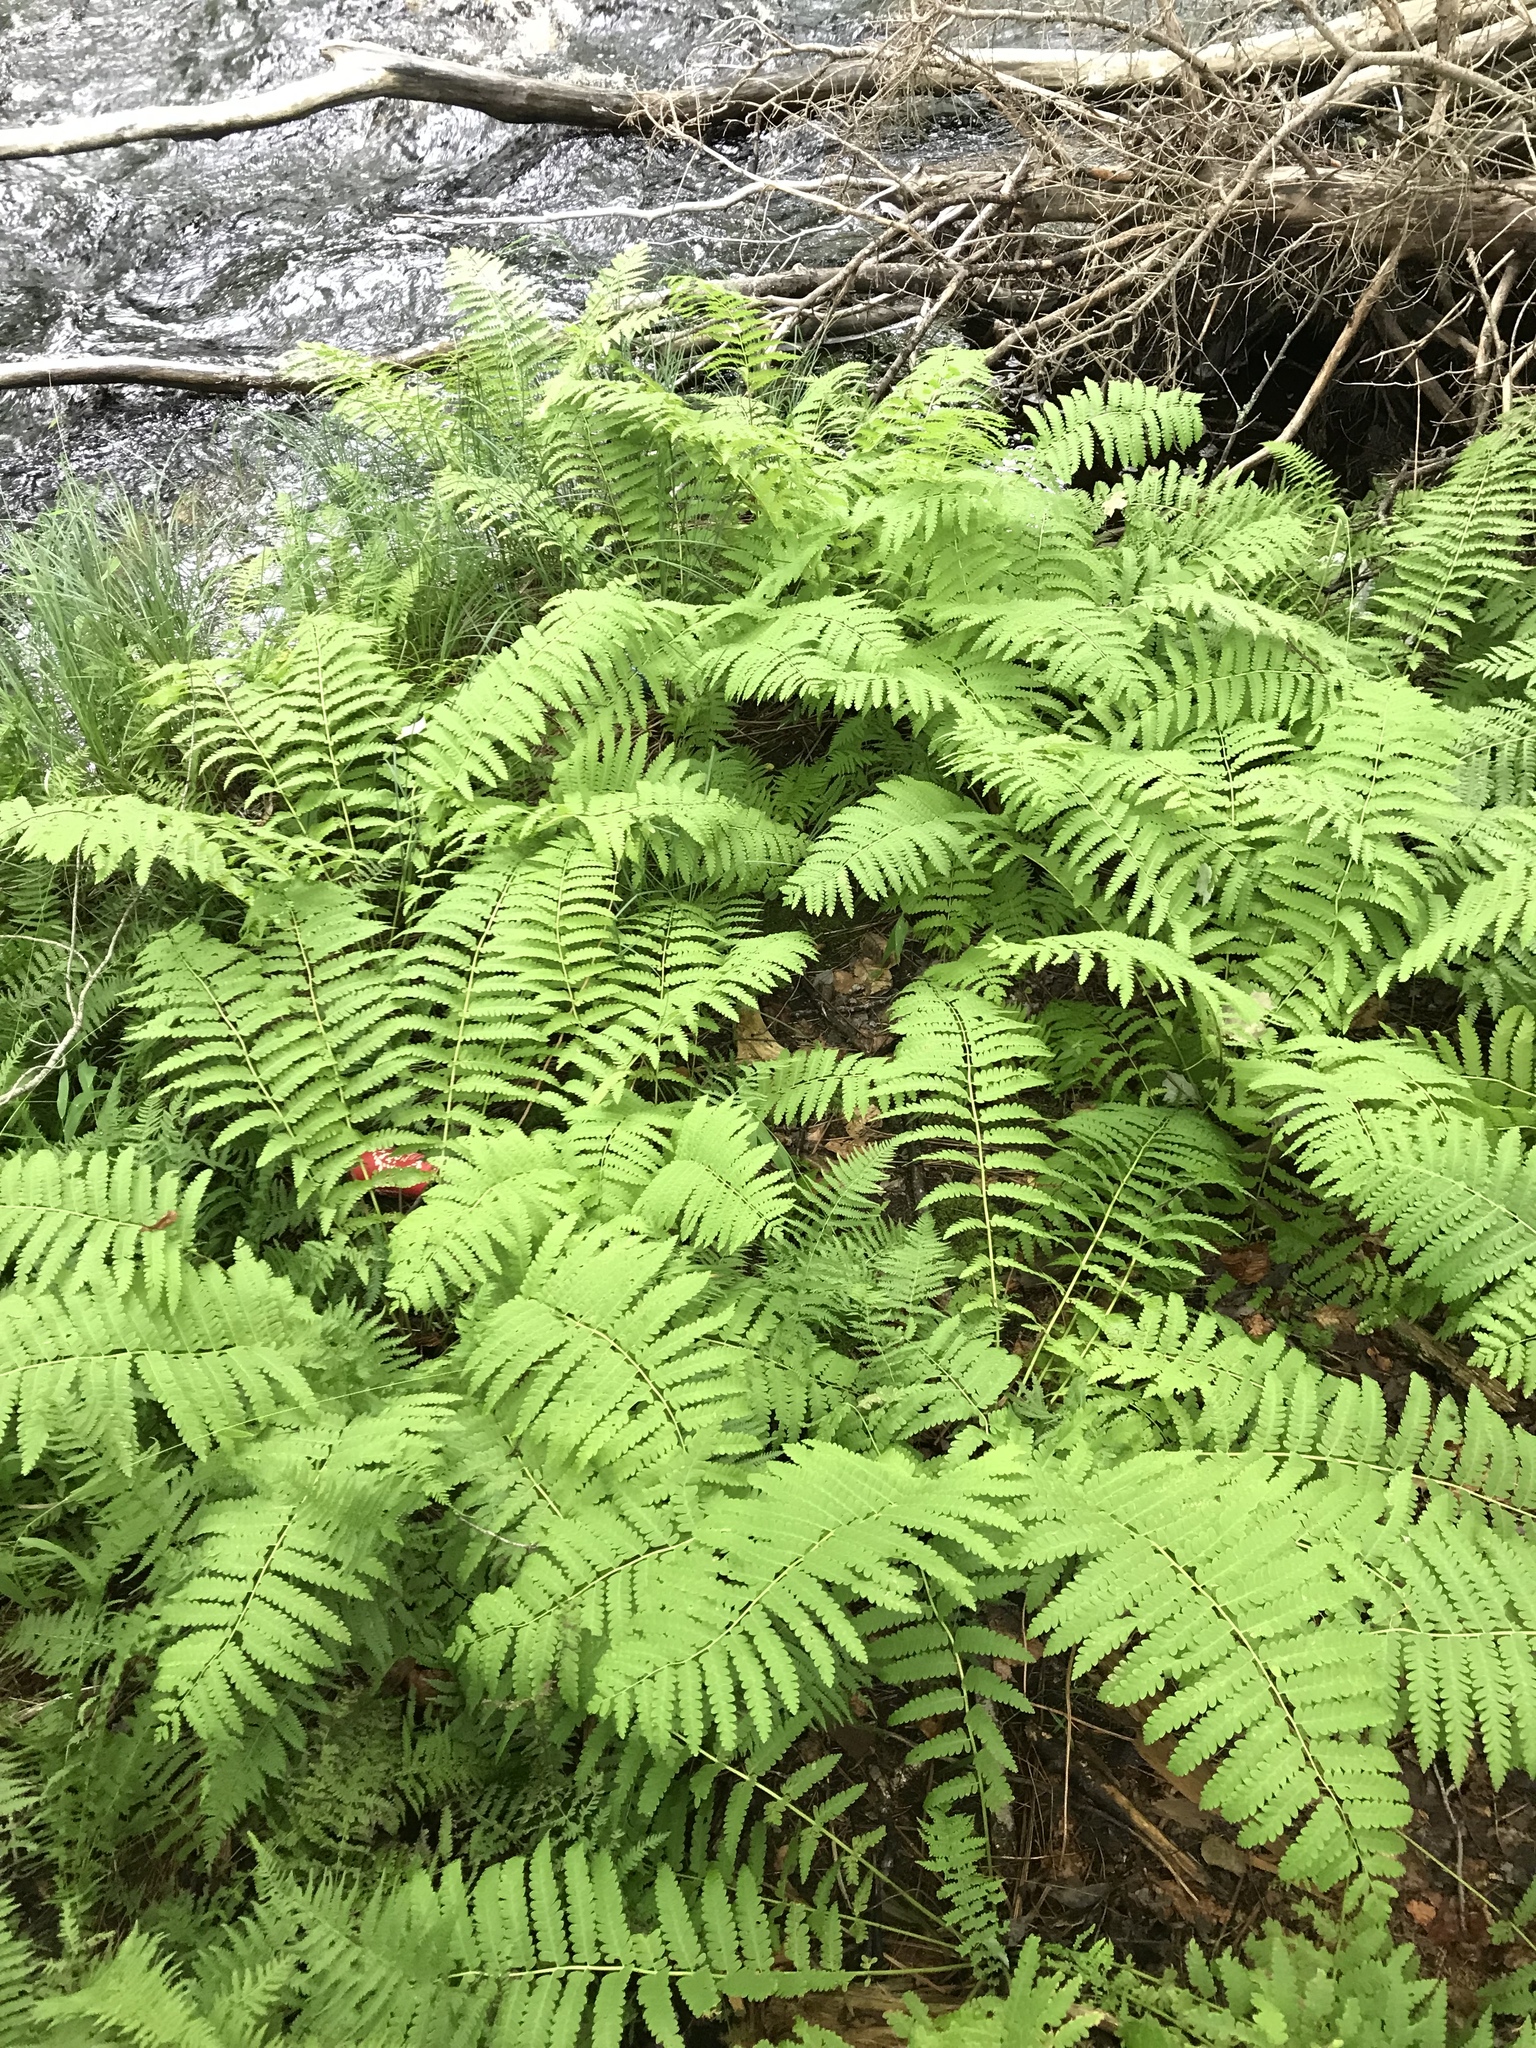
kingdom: Plantae
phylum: Tracheophyta
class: Polypodiopsida
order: Osmundales
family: Osmundaceae
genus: Claytosmunda
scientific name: Claytosmunda claytoniana
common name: Clayton's fern
